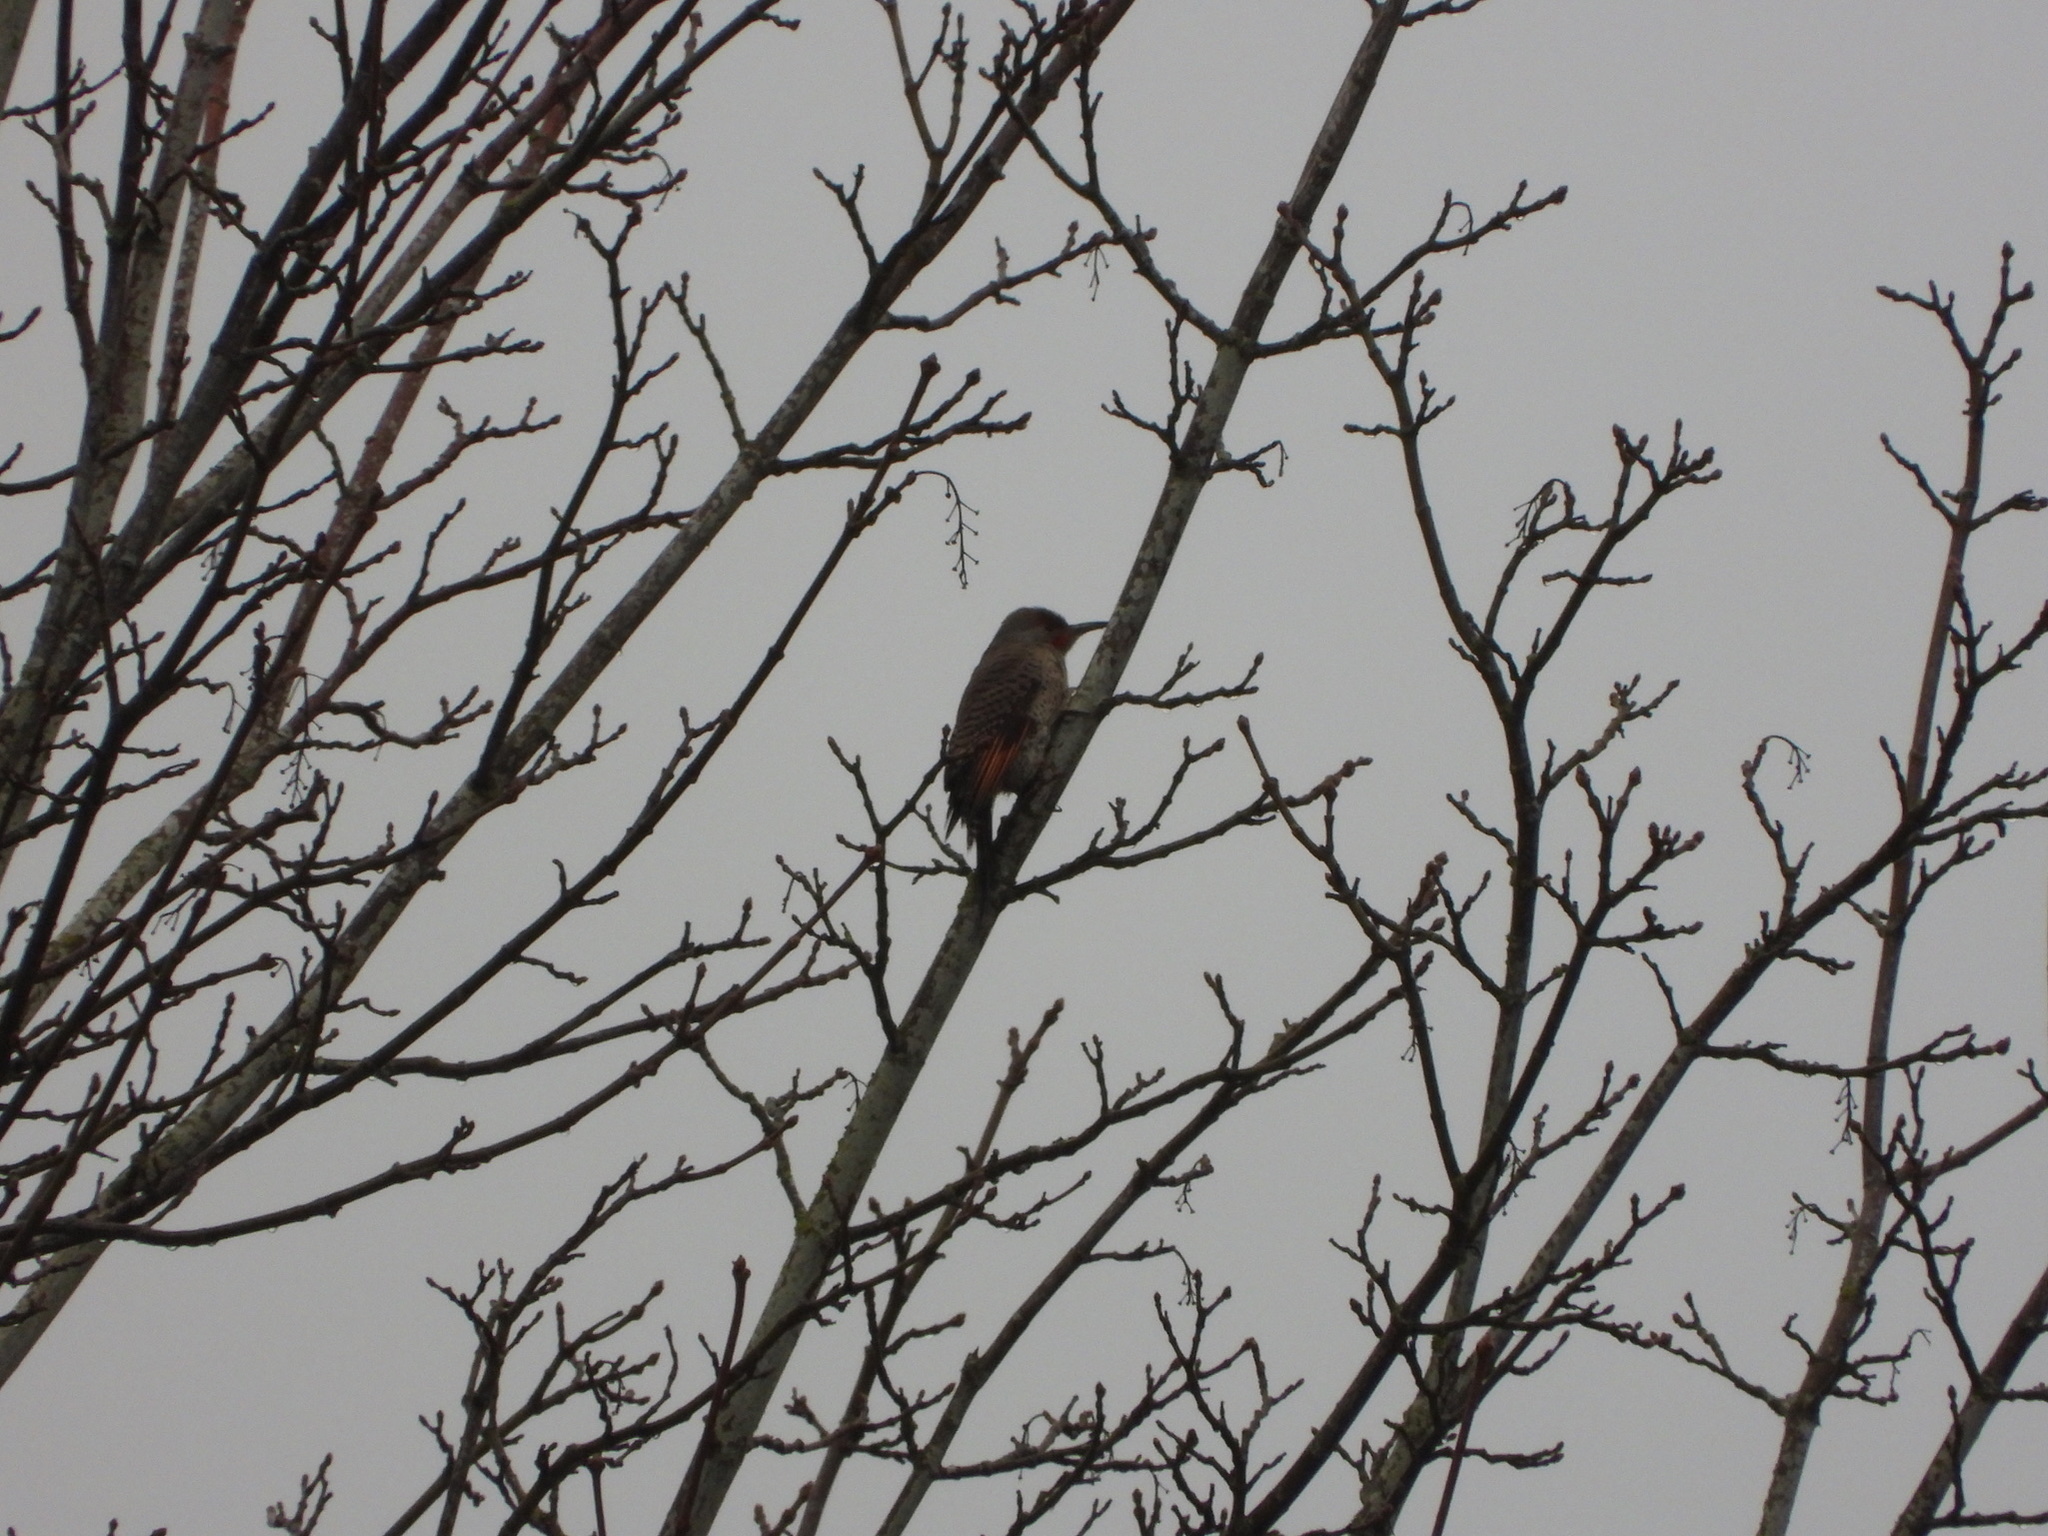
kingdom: Animalia
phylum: Chordata
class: Aves
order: Piciformes
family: Picidae
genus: Colaptes
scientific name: Colaptes auratus
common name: Northern flicker
